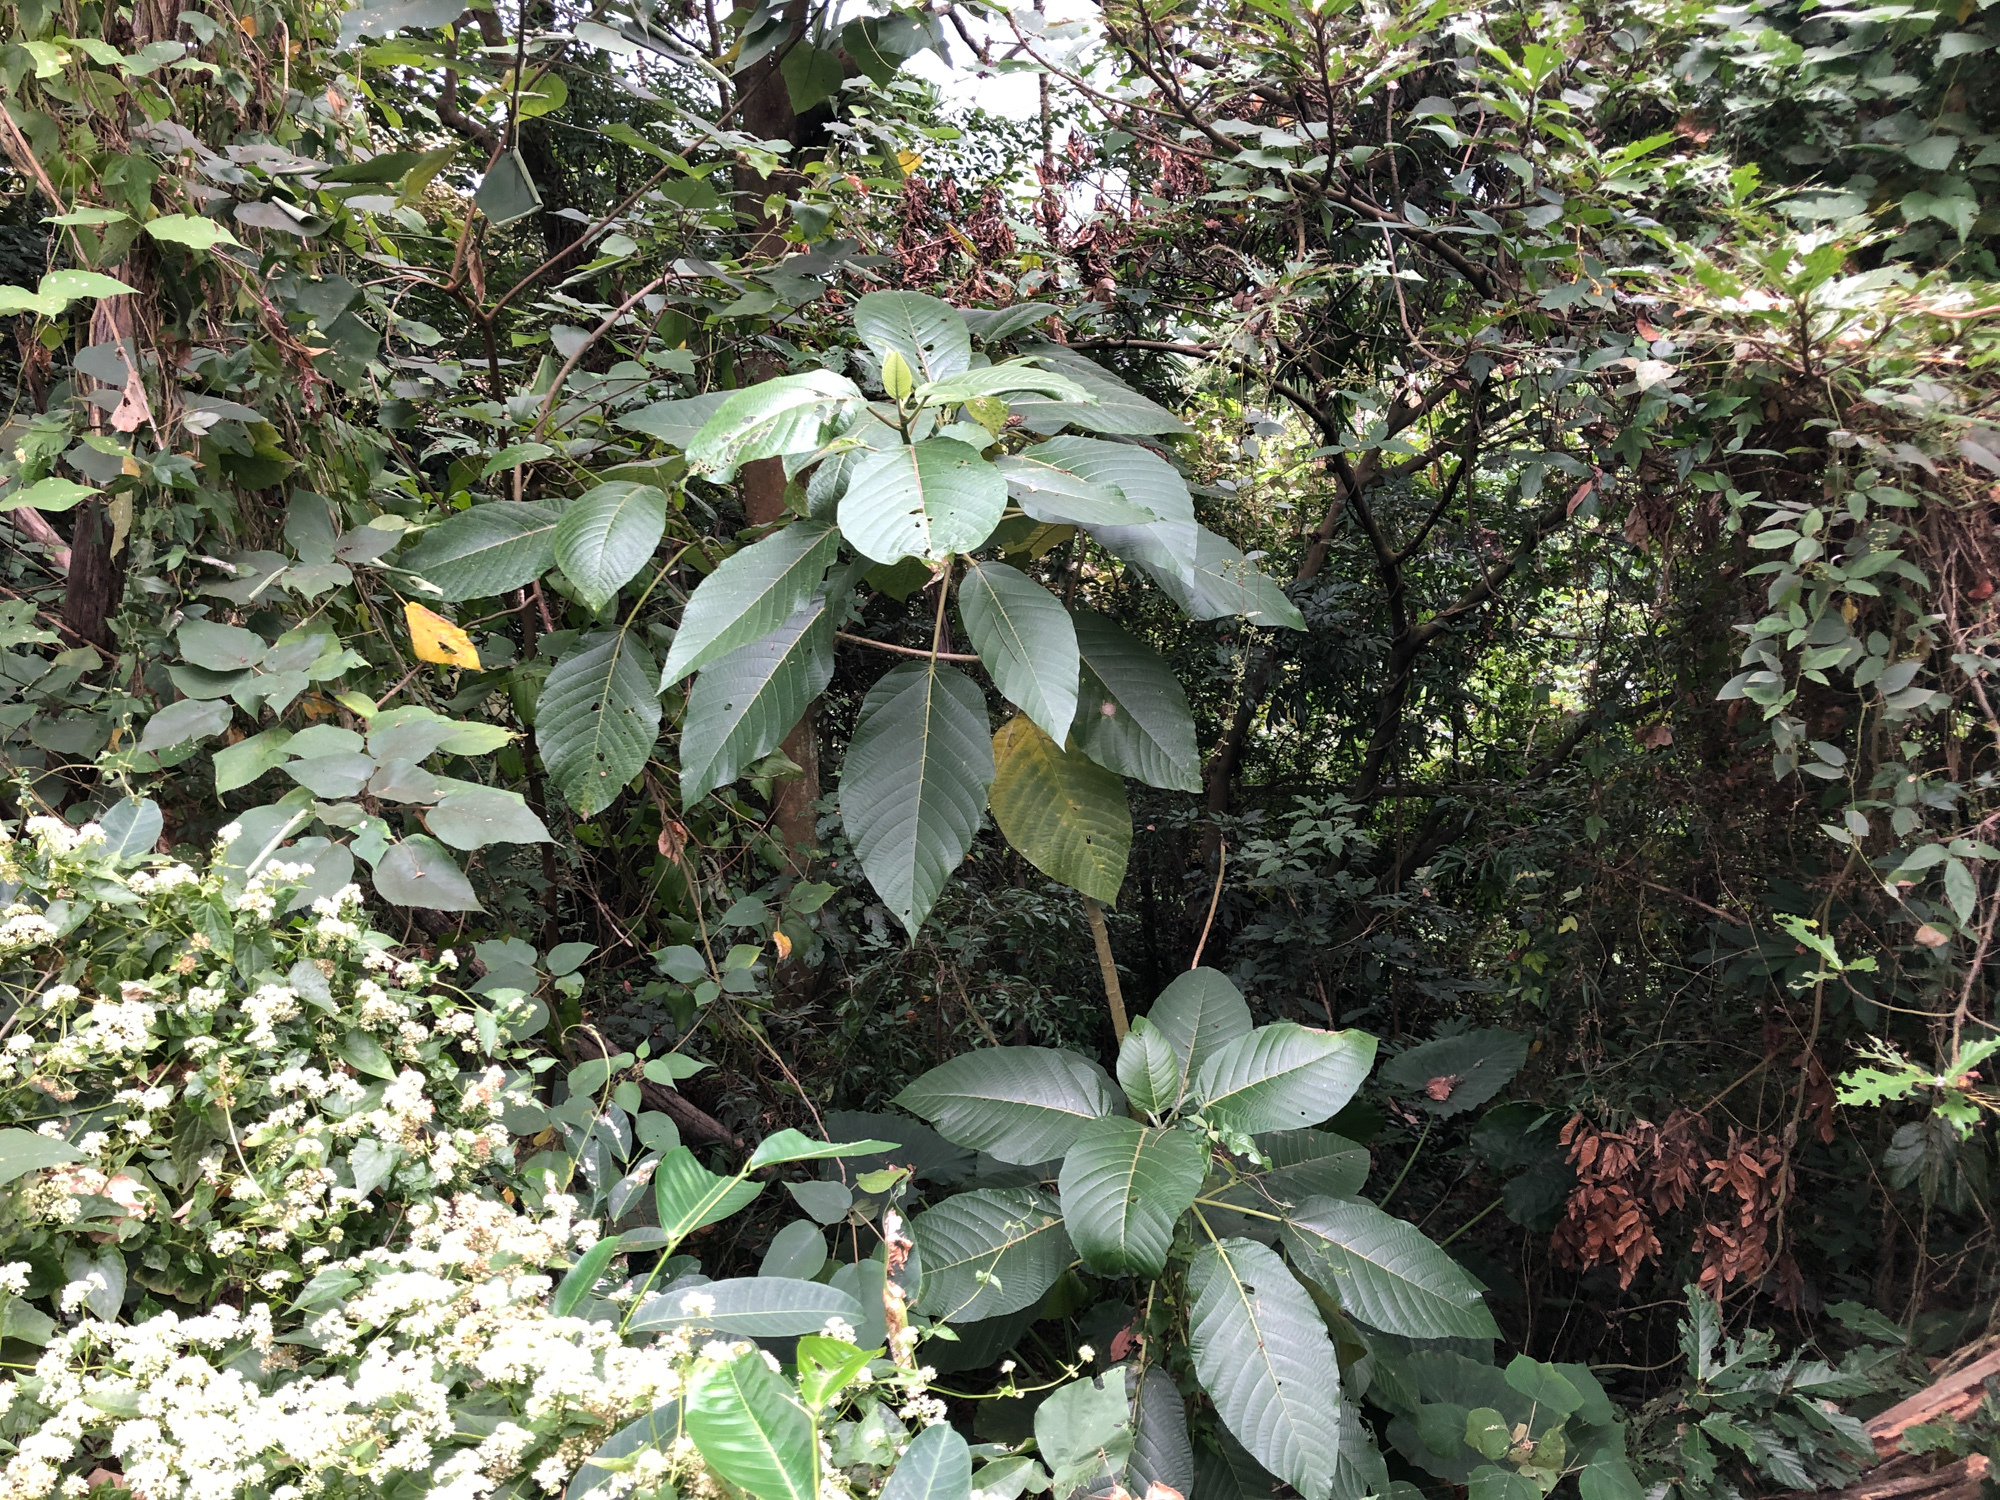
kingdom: Plantae
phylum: Tracheophyta
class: Magnoliopsida
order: Rosales
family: Urticaceae
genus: Dendrocnide
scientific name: Dendrocnide meyeniana
